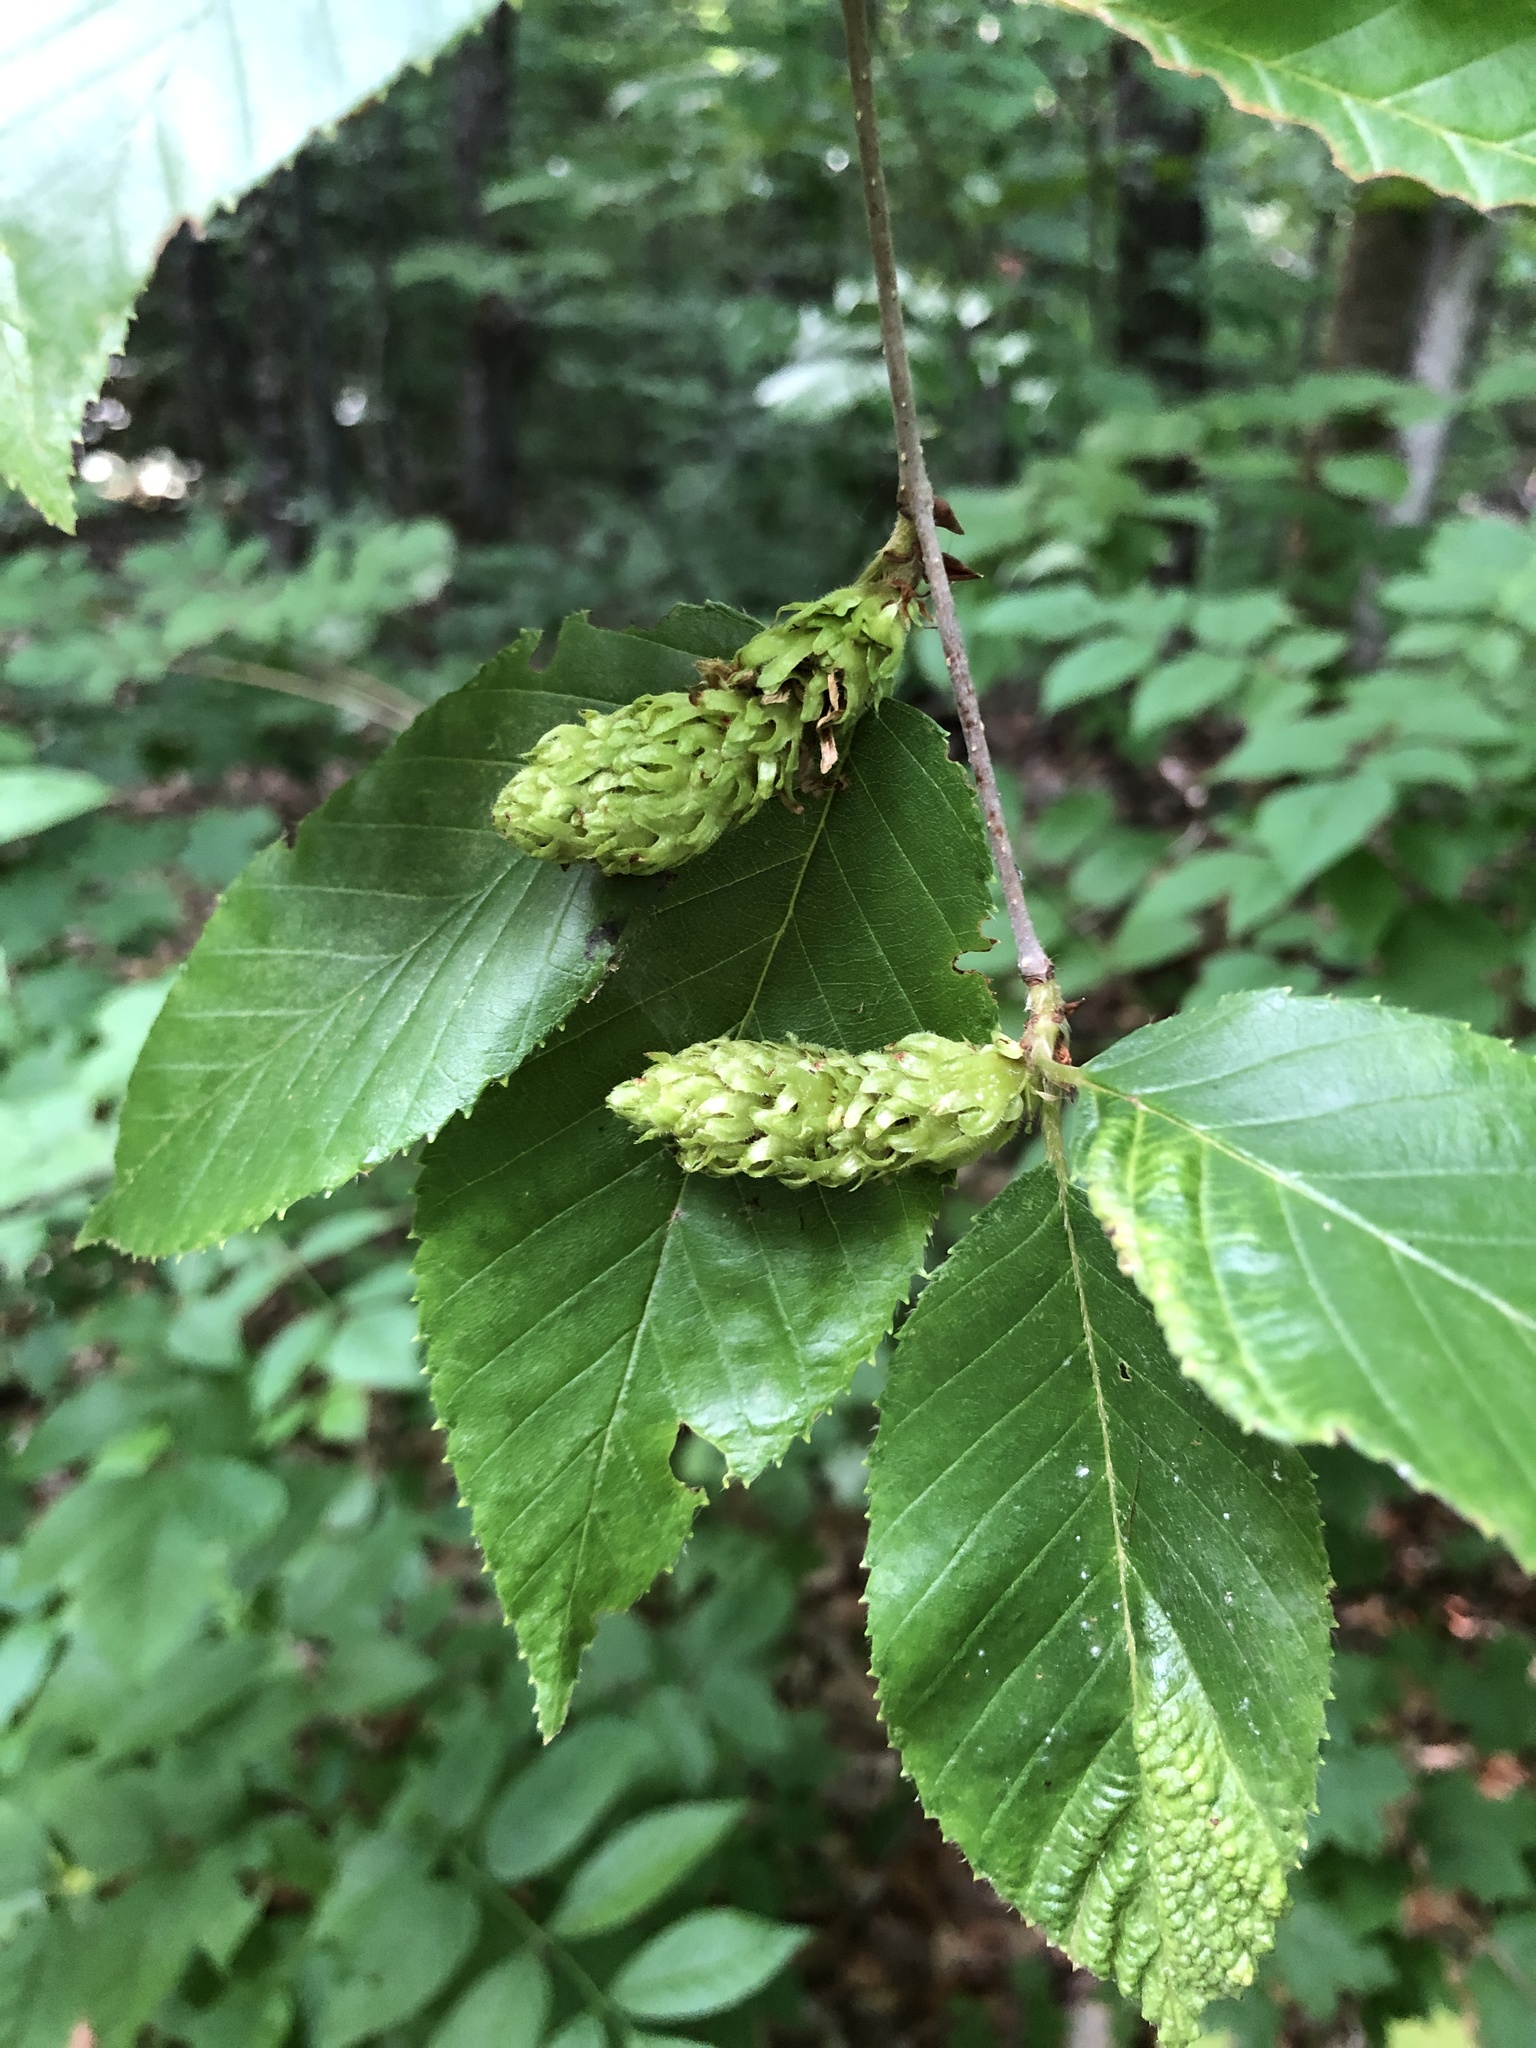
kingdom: Plantae
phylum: Tracheophyta
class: Magnoliopsida
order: Fagales
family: Betulaceae
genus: Betula
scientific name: Betula alleghaniensis
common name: Yellow birch
